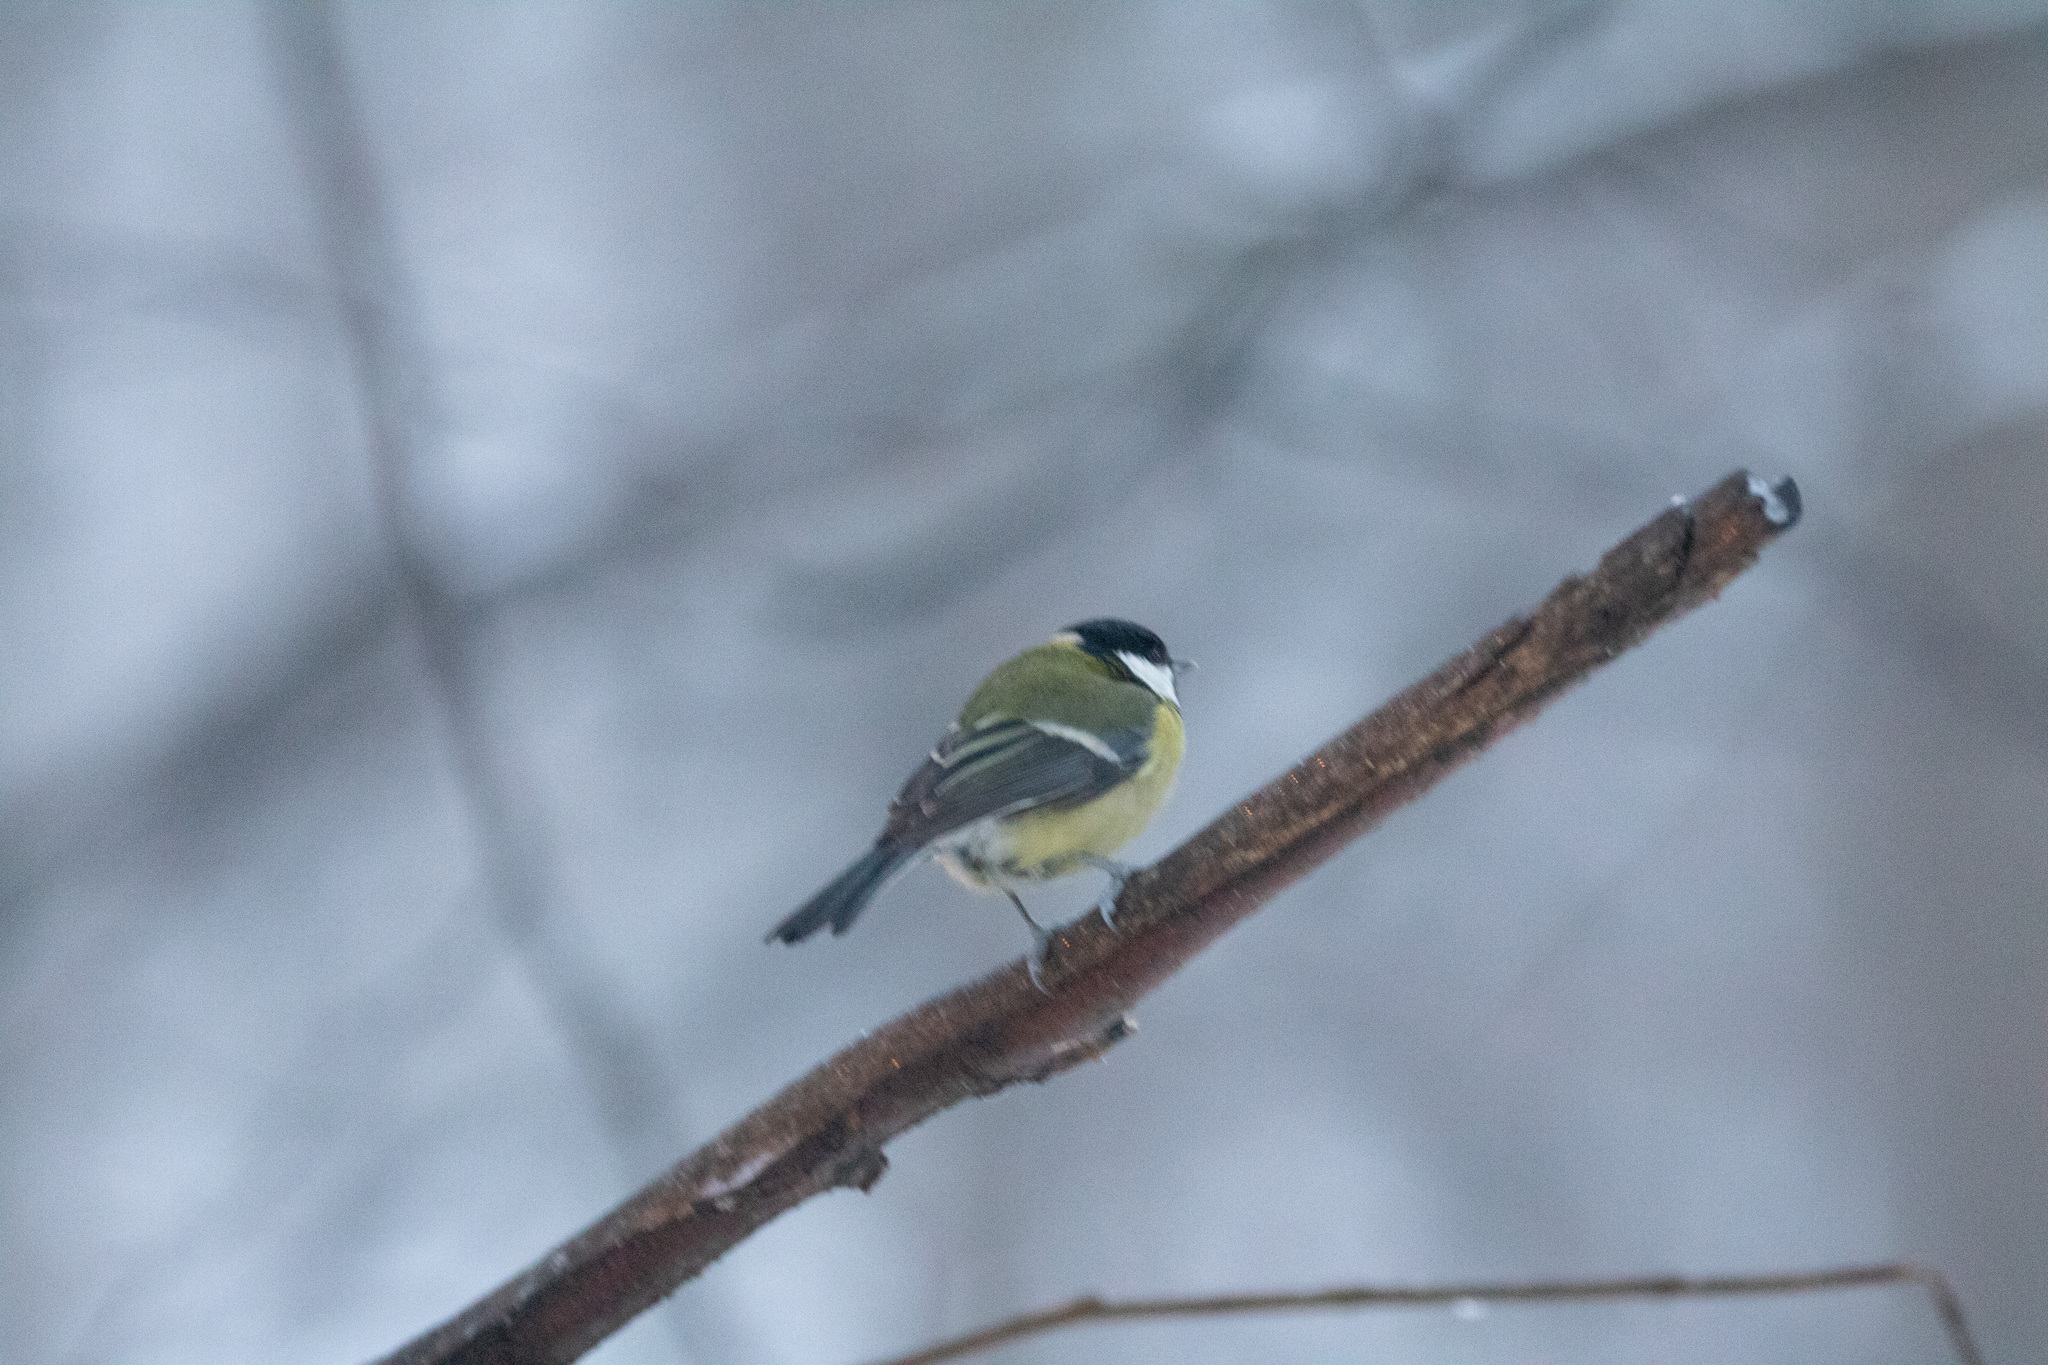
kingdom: Animalia
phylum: Chordata
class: Aves
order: Passeriformes
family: Paridae
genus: Parus
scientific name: Parus major
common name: Great tit
